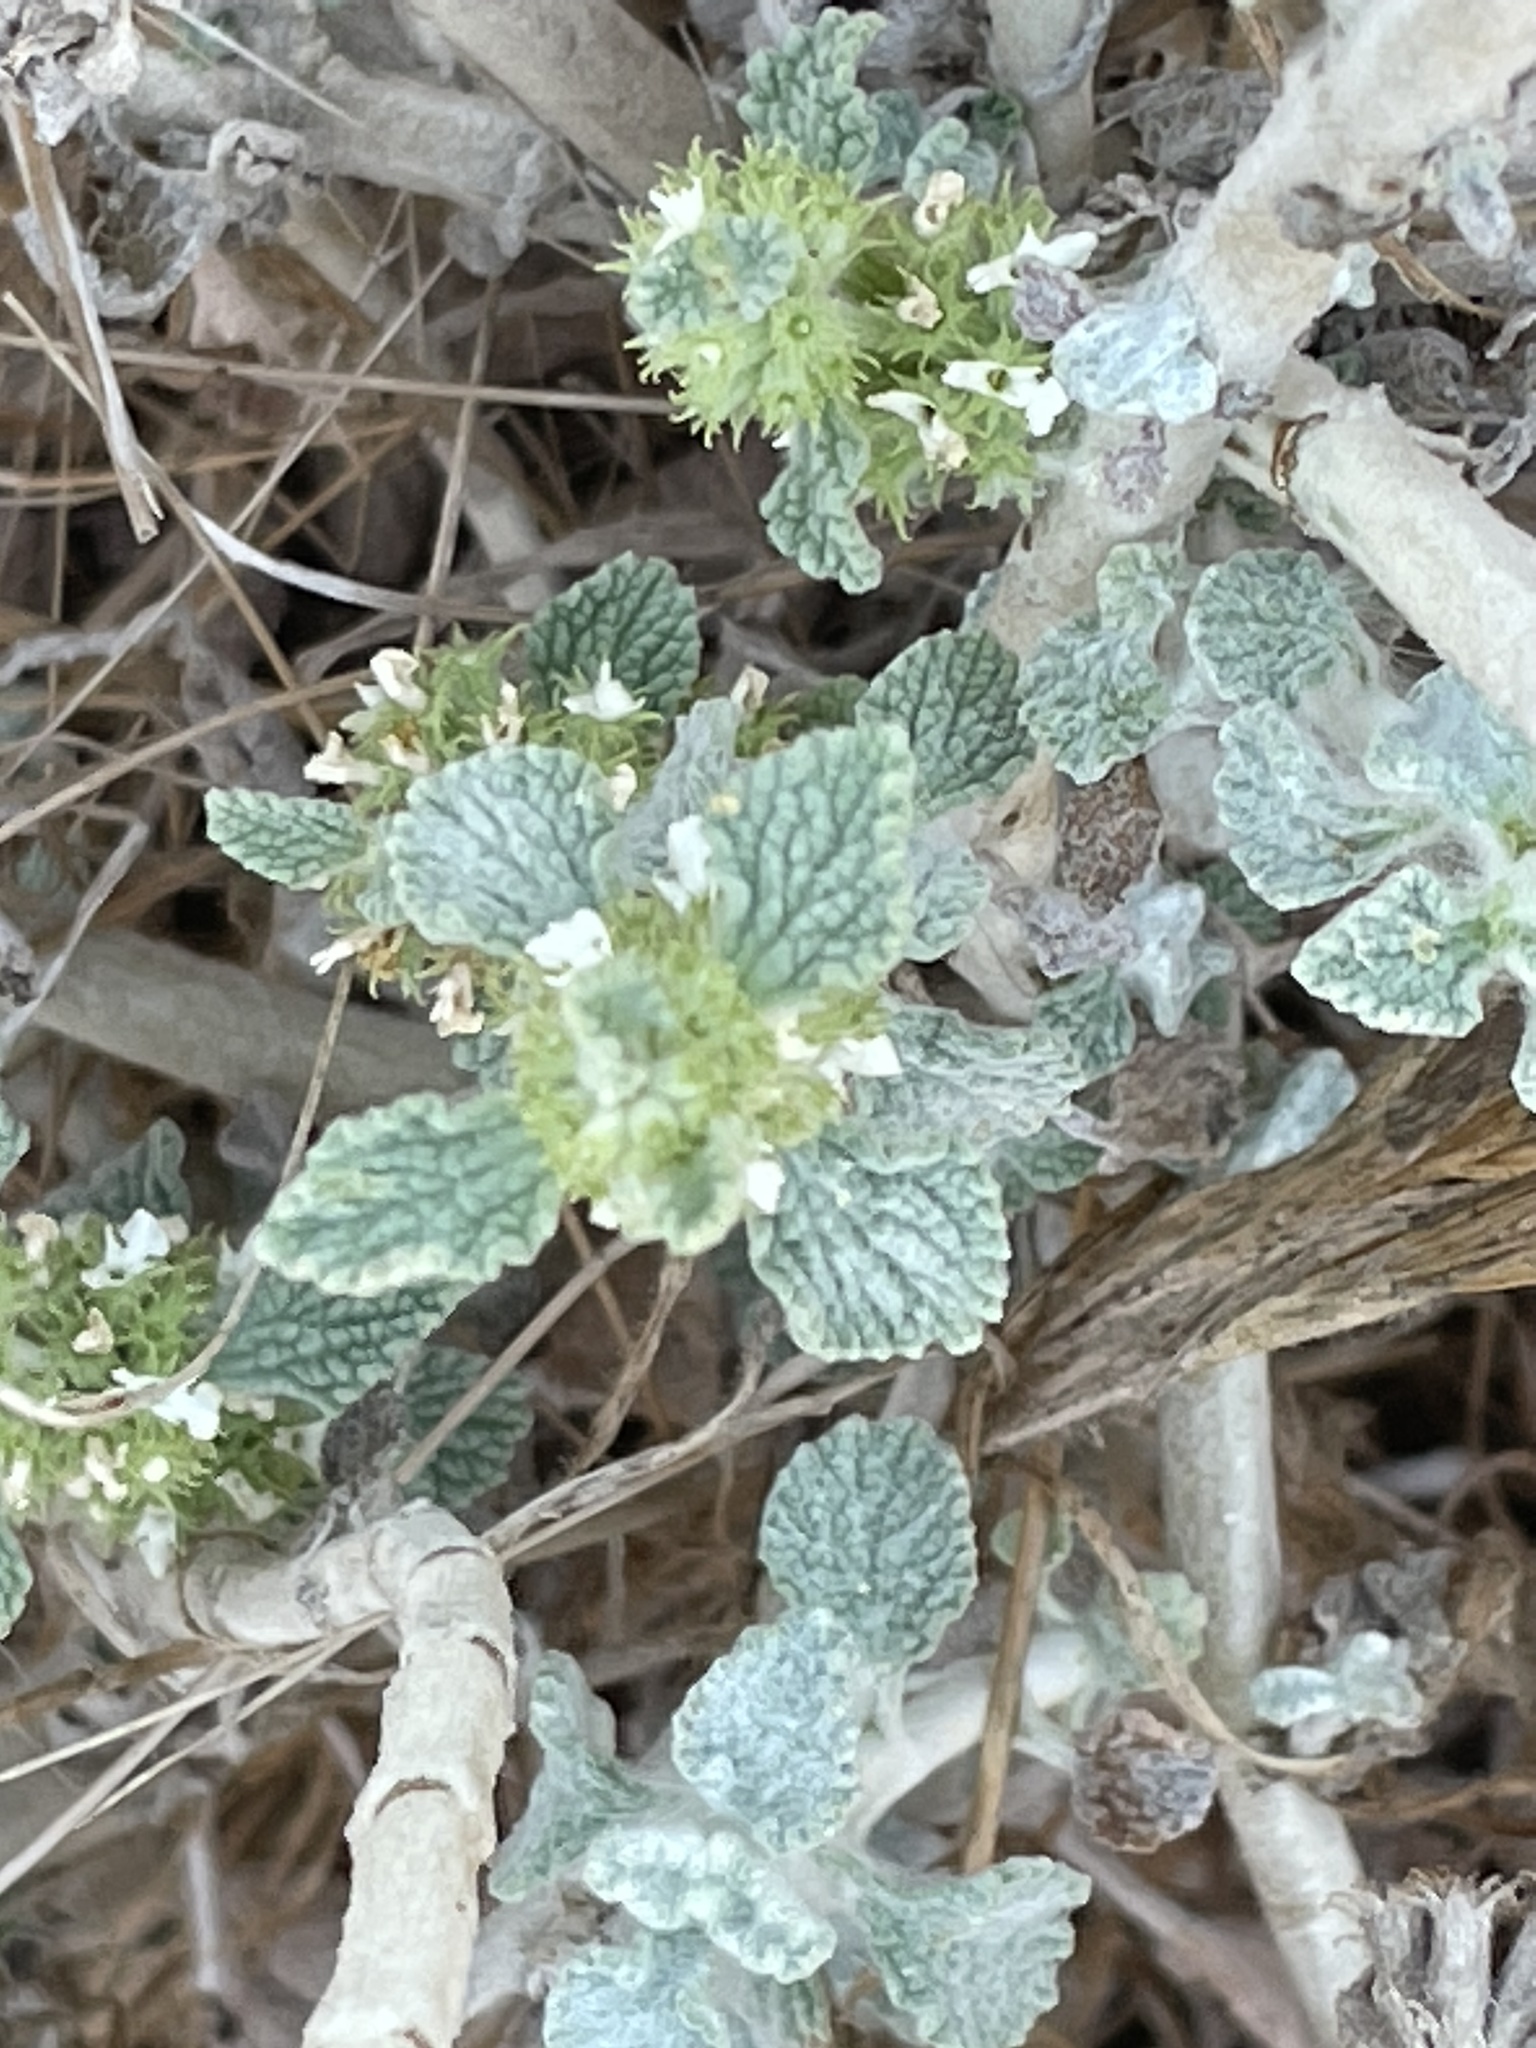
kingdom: Plantae
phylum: Tracheophyta
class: Magnoliopsida
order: Lamiales
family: Lamiaceae
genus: Marrubium
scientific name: Marrubium vulgare
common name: Horehound
